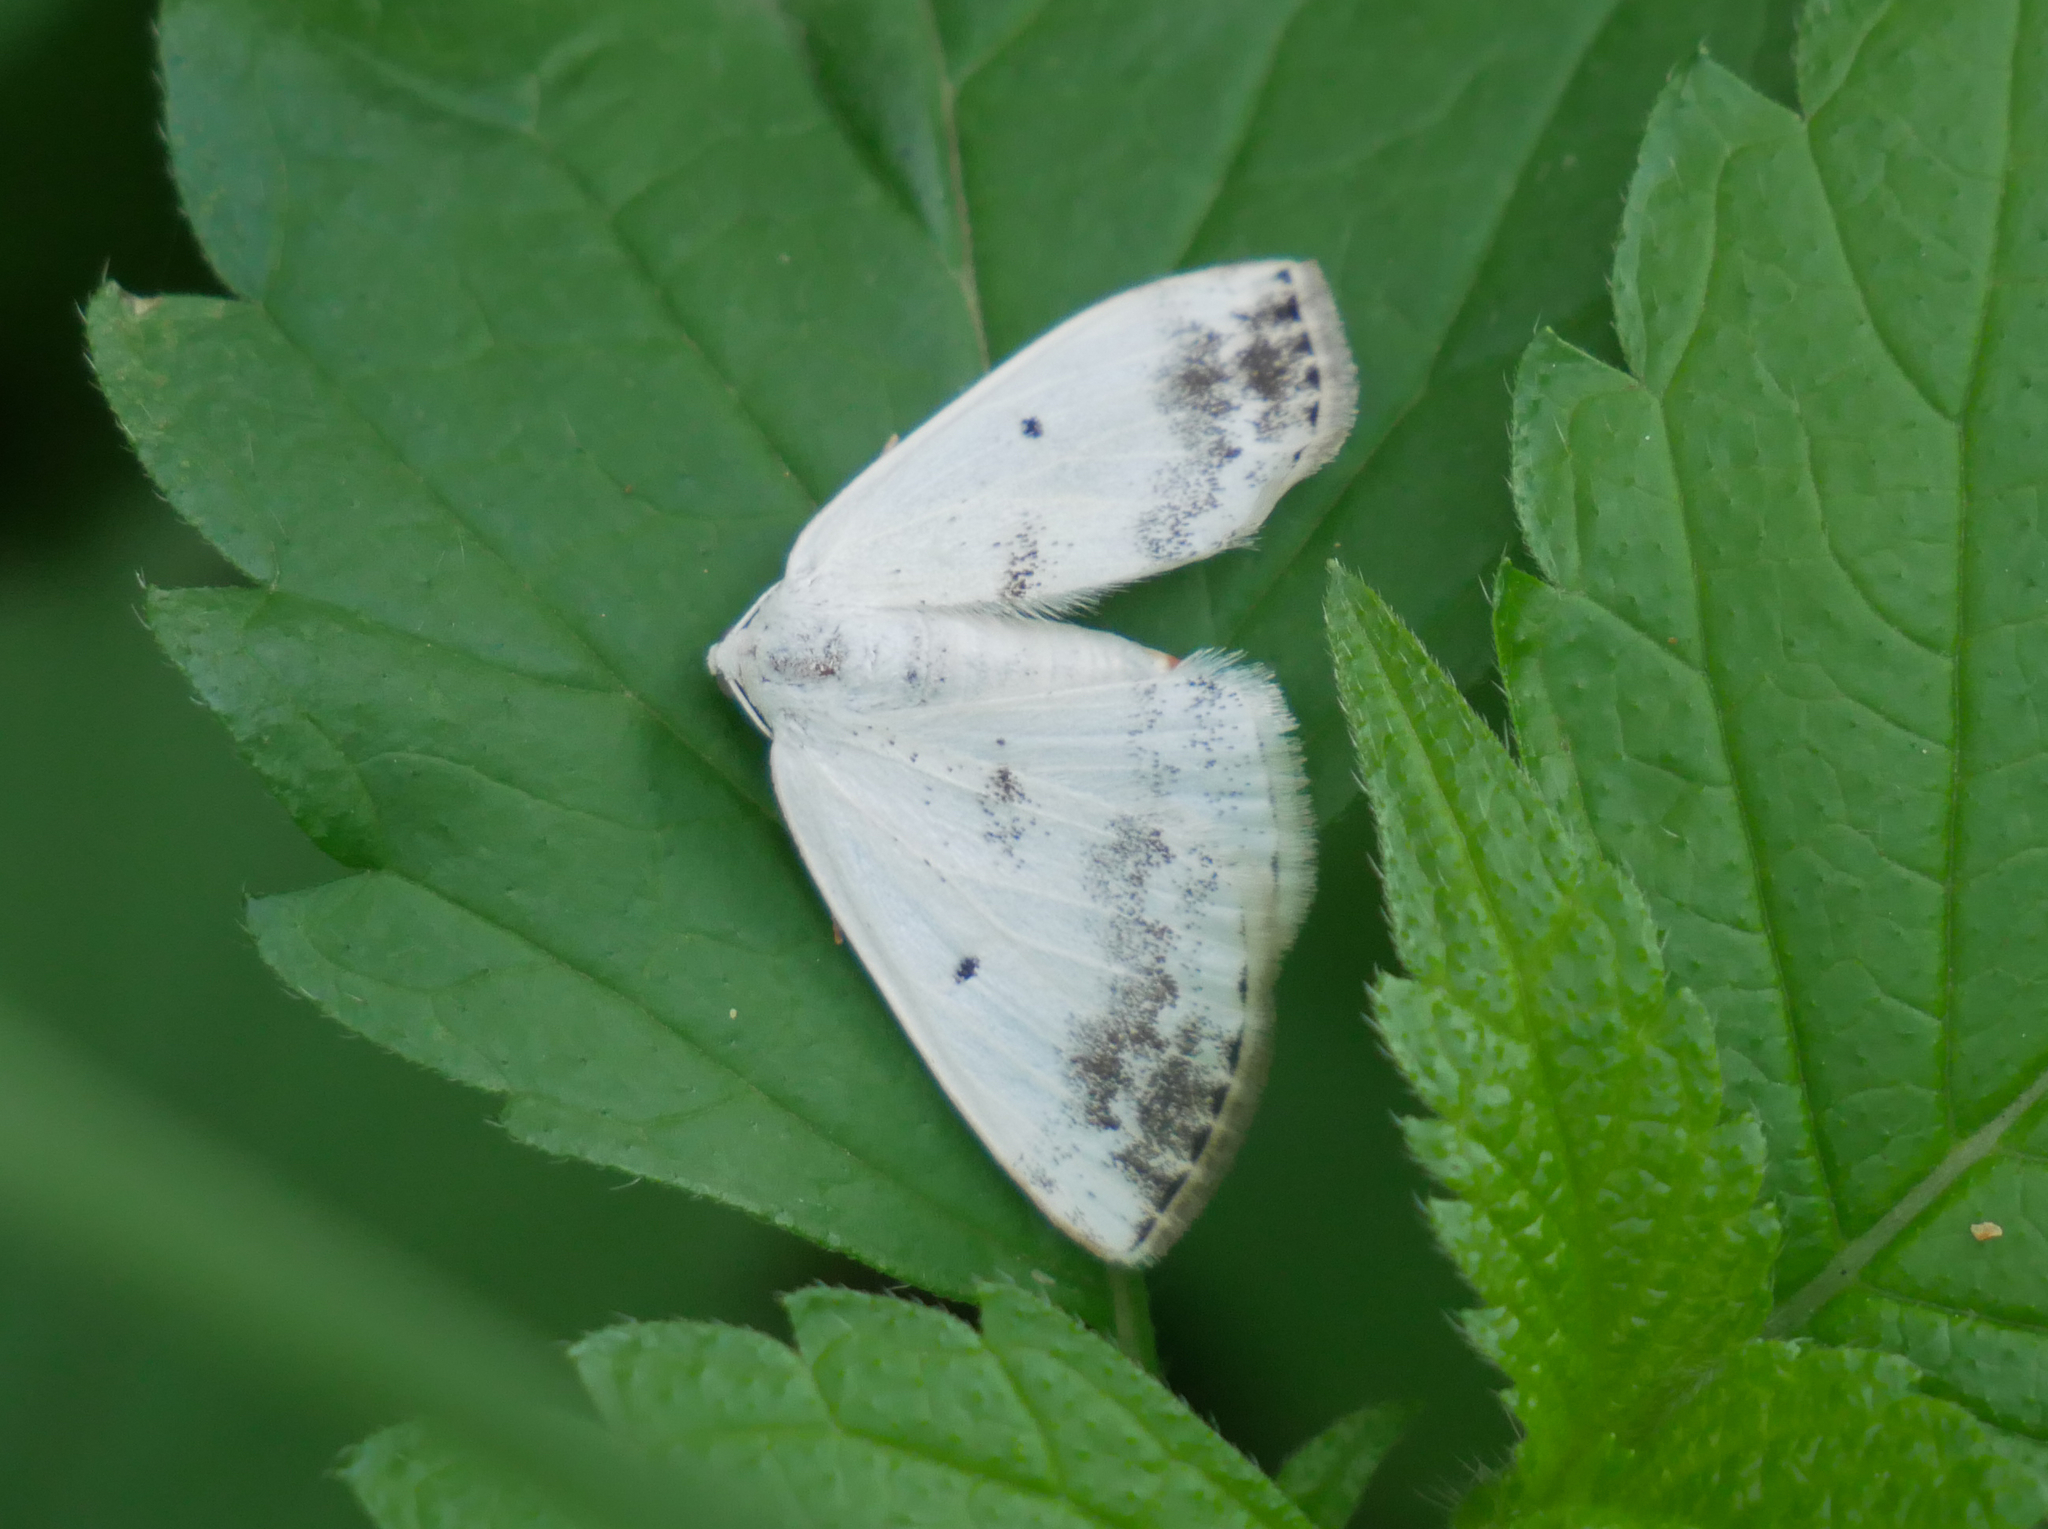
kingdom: Animalia
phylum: Arthropoda
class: Insecta
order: Lepidoptera
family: Geometridae
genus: Lomographa
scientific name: Lomographa temerata
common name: Clouded silver
